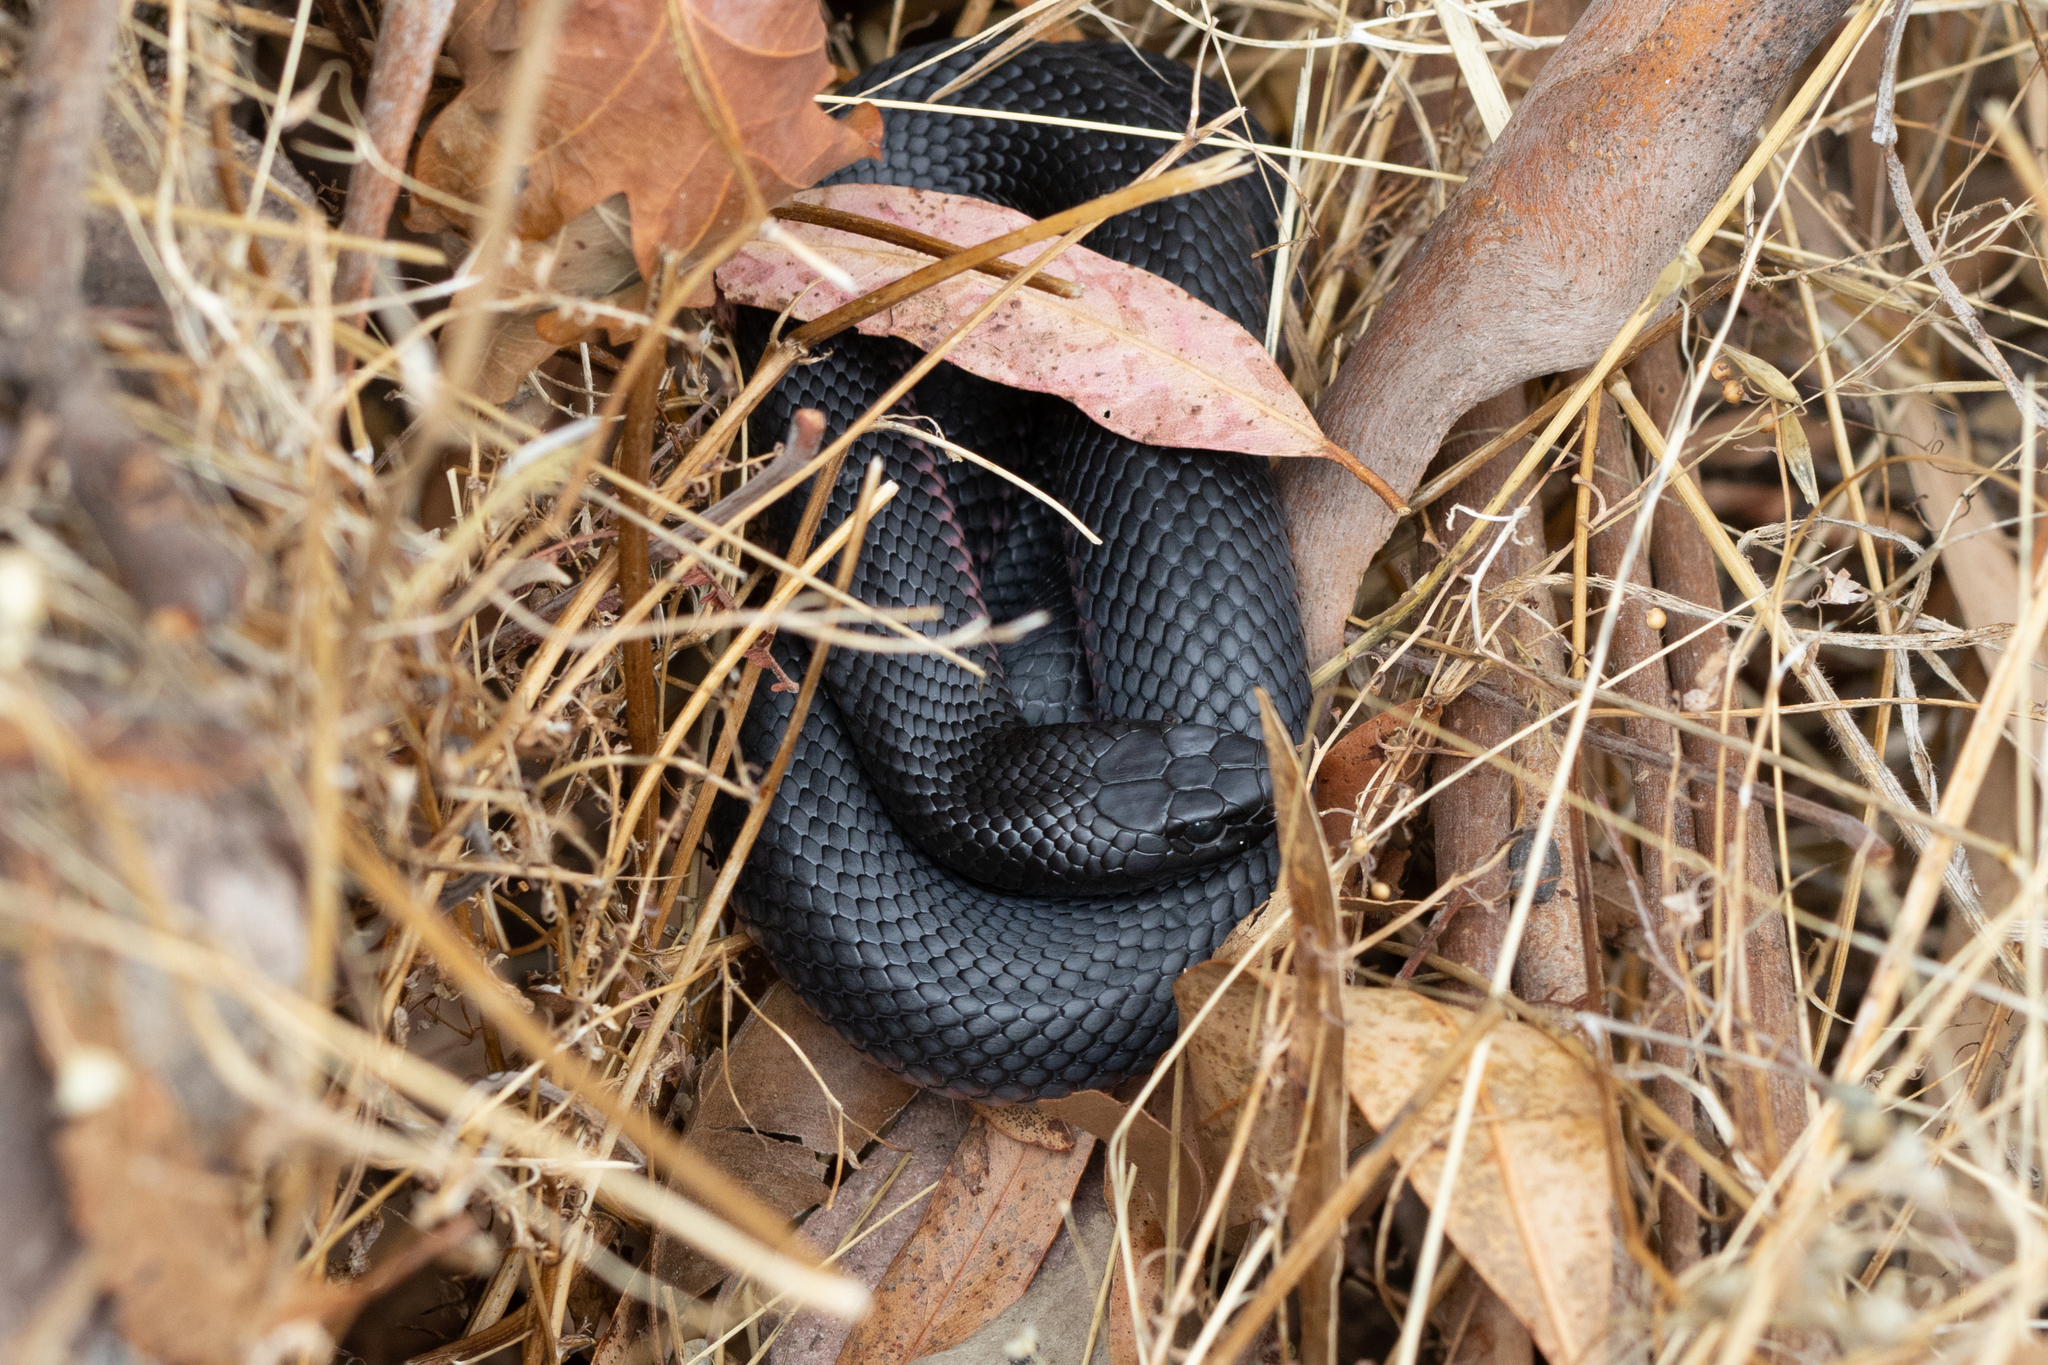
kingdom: Animalia
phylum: Chordata
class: Squamata
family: Elapidae
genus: Pseudechis
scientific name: Pseudechis porphyriacus
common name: Australian black snake
